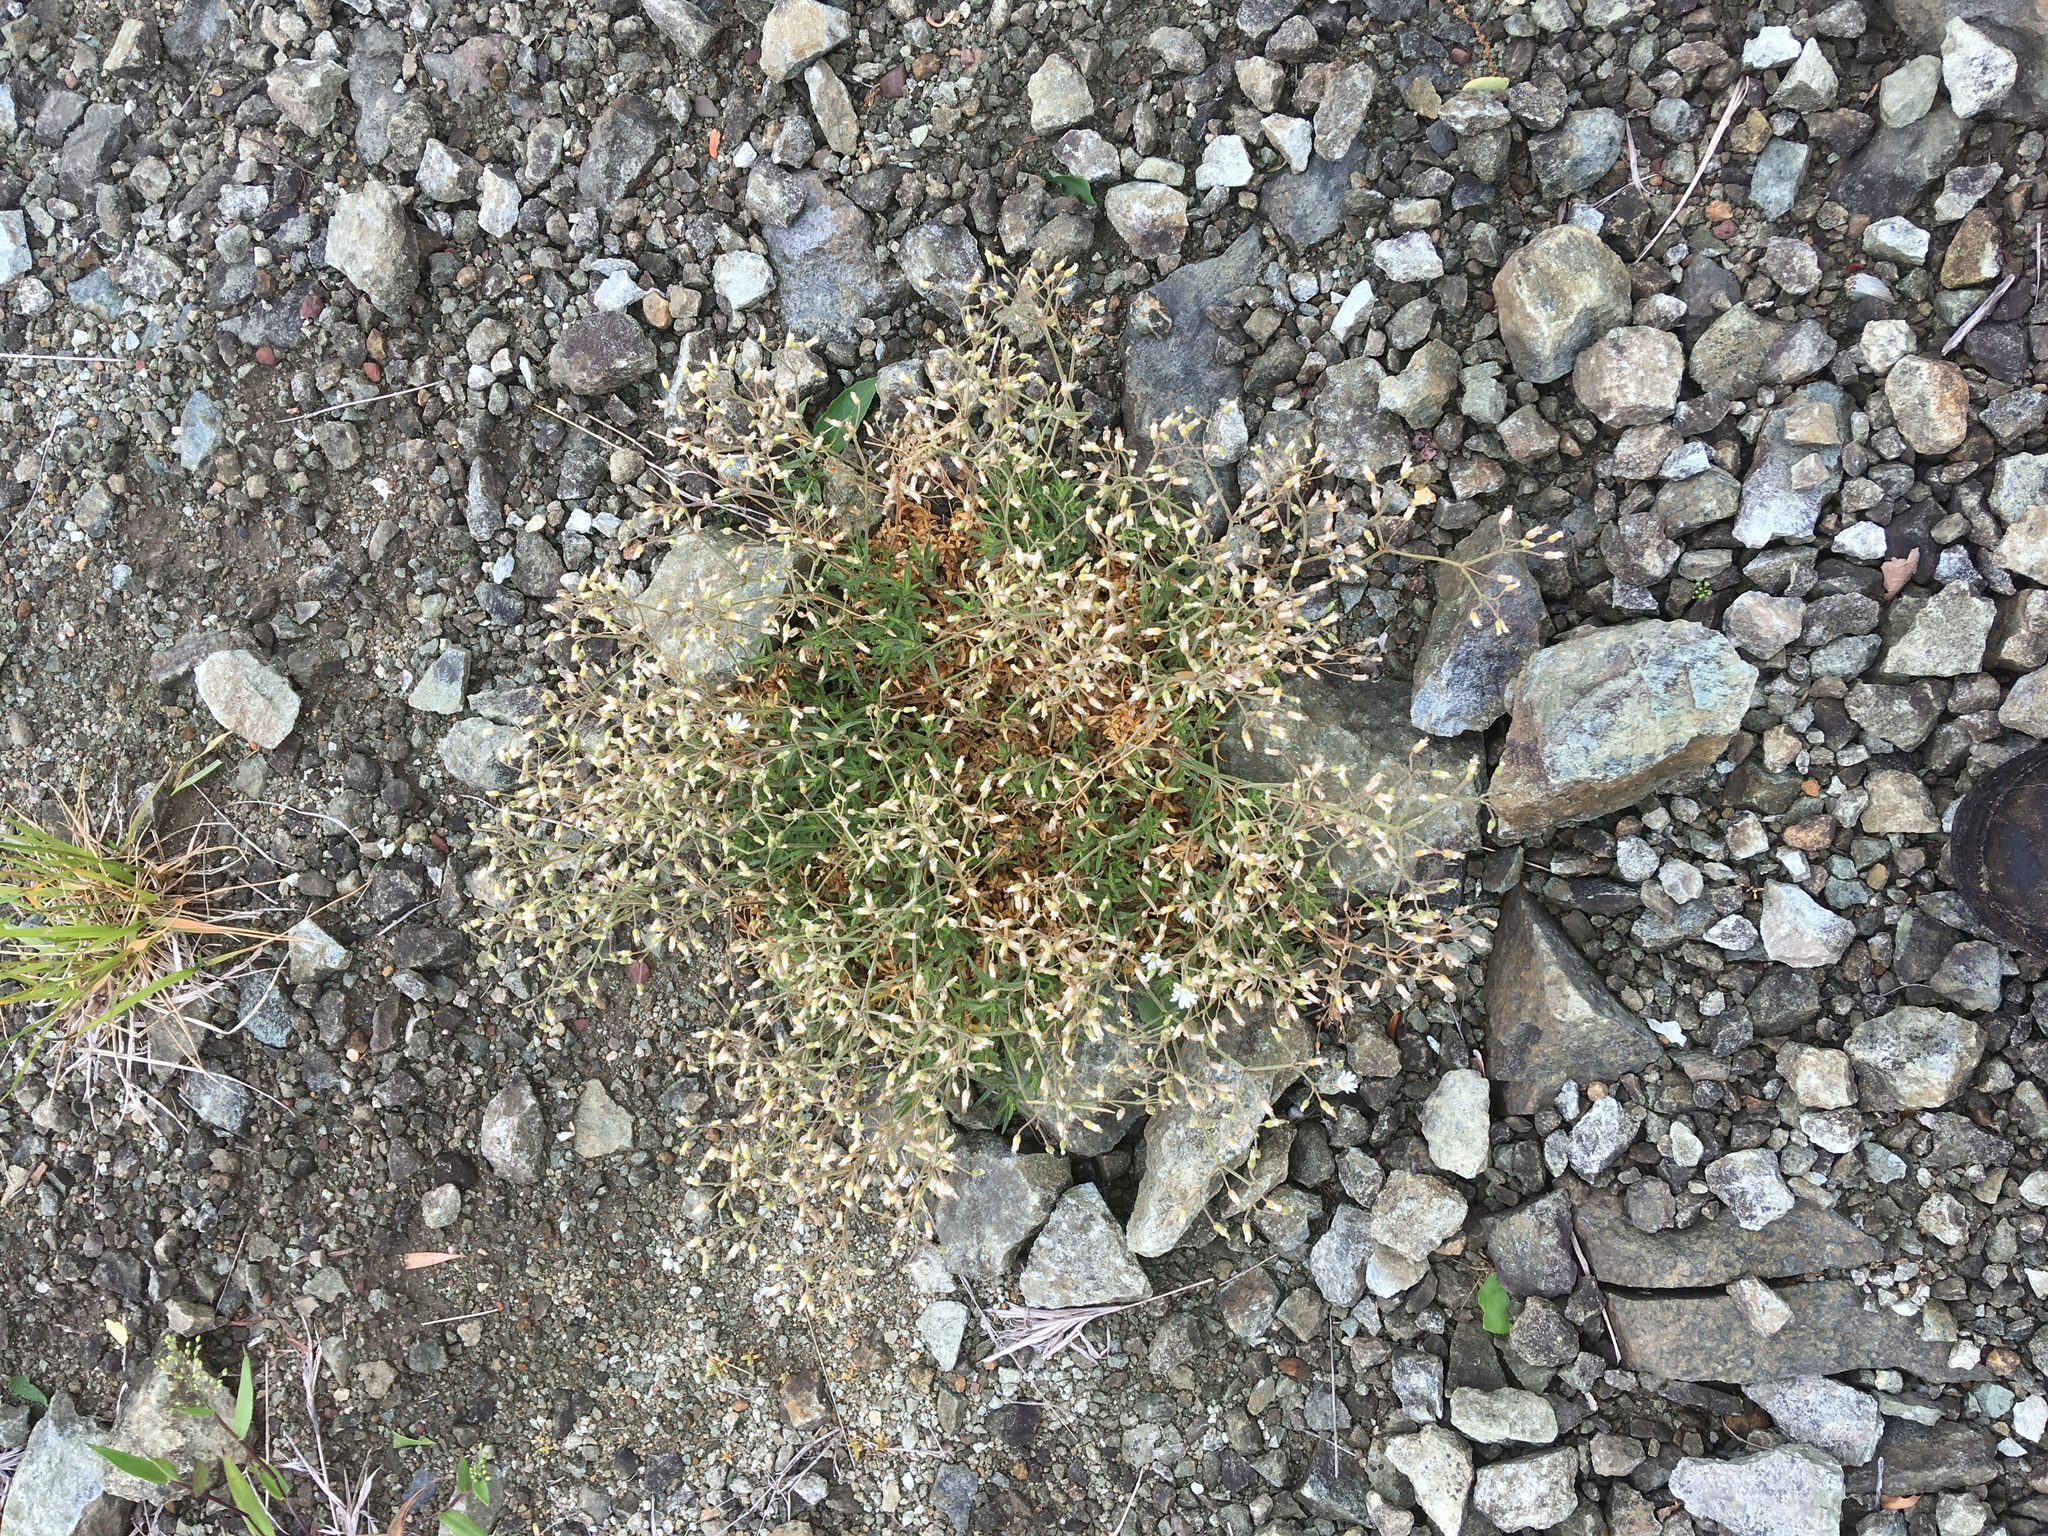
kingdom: Plantae
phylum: Tracheophyta
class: Magnoliopsida
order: Caryophyllales
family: Caryophyllaceae
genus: Cerastium
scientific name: Cerastium arvense
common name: Field mouse-ear
